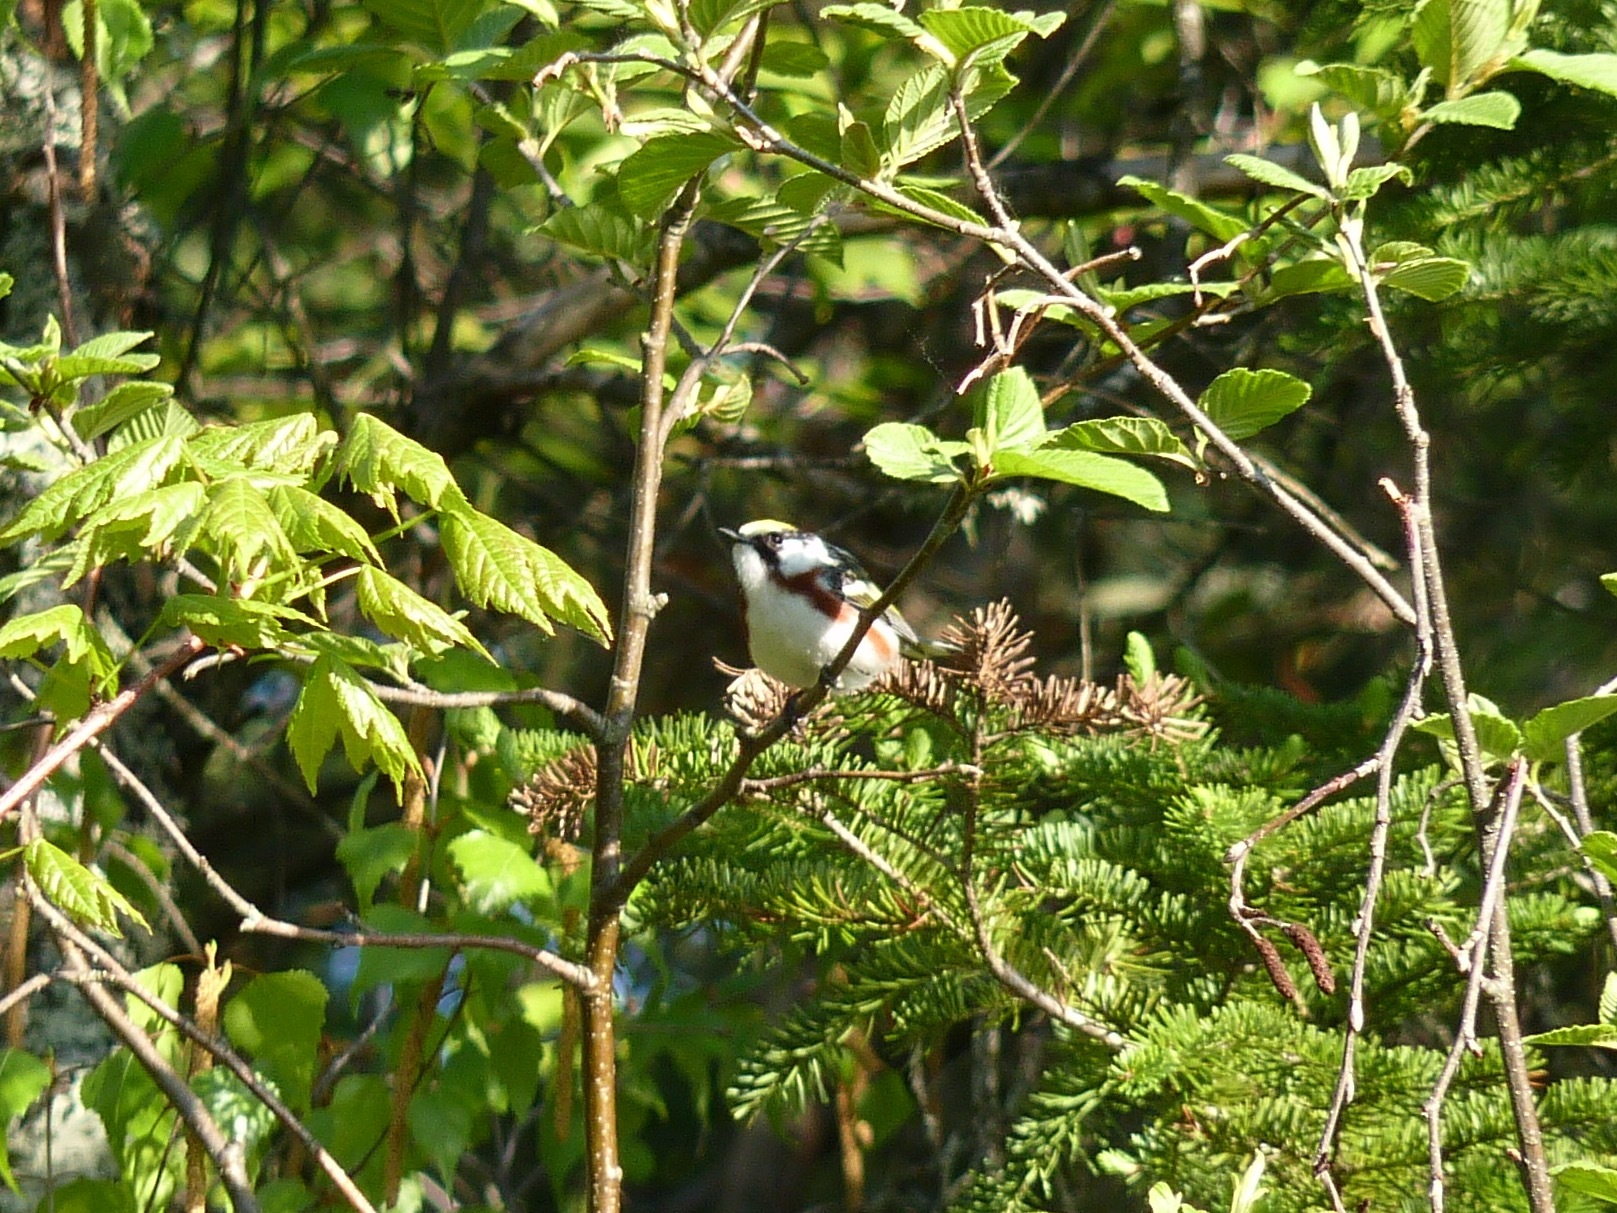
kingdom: Animalia
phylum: Chordata
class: Aves
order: Passeriformes
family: Parulidae
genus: Setophaga
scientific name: Setophaga pensylvanica
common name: Chestnut-sided warbler
